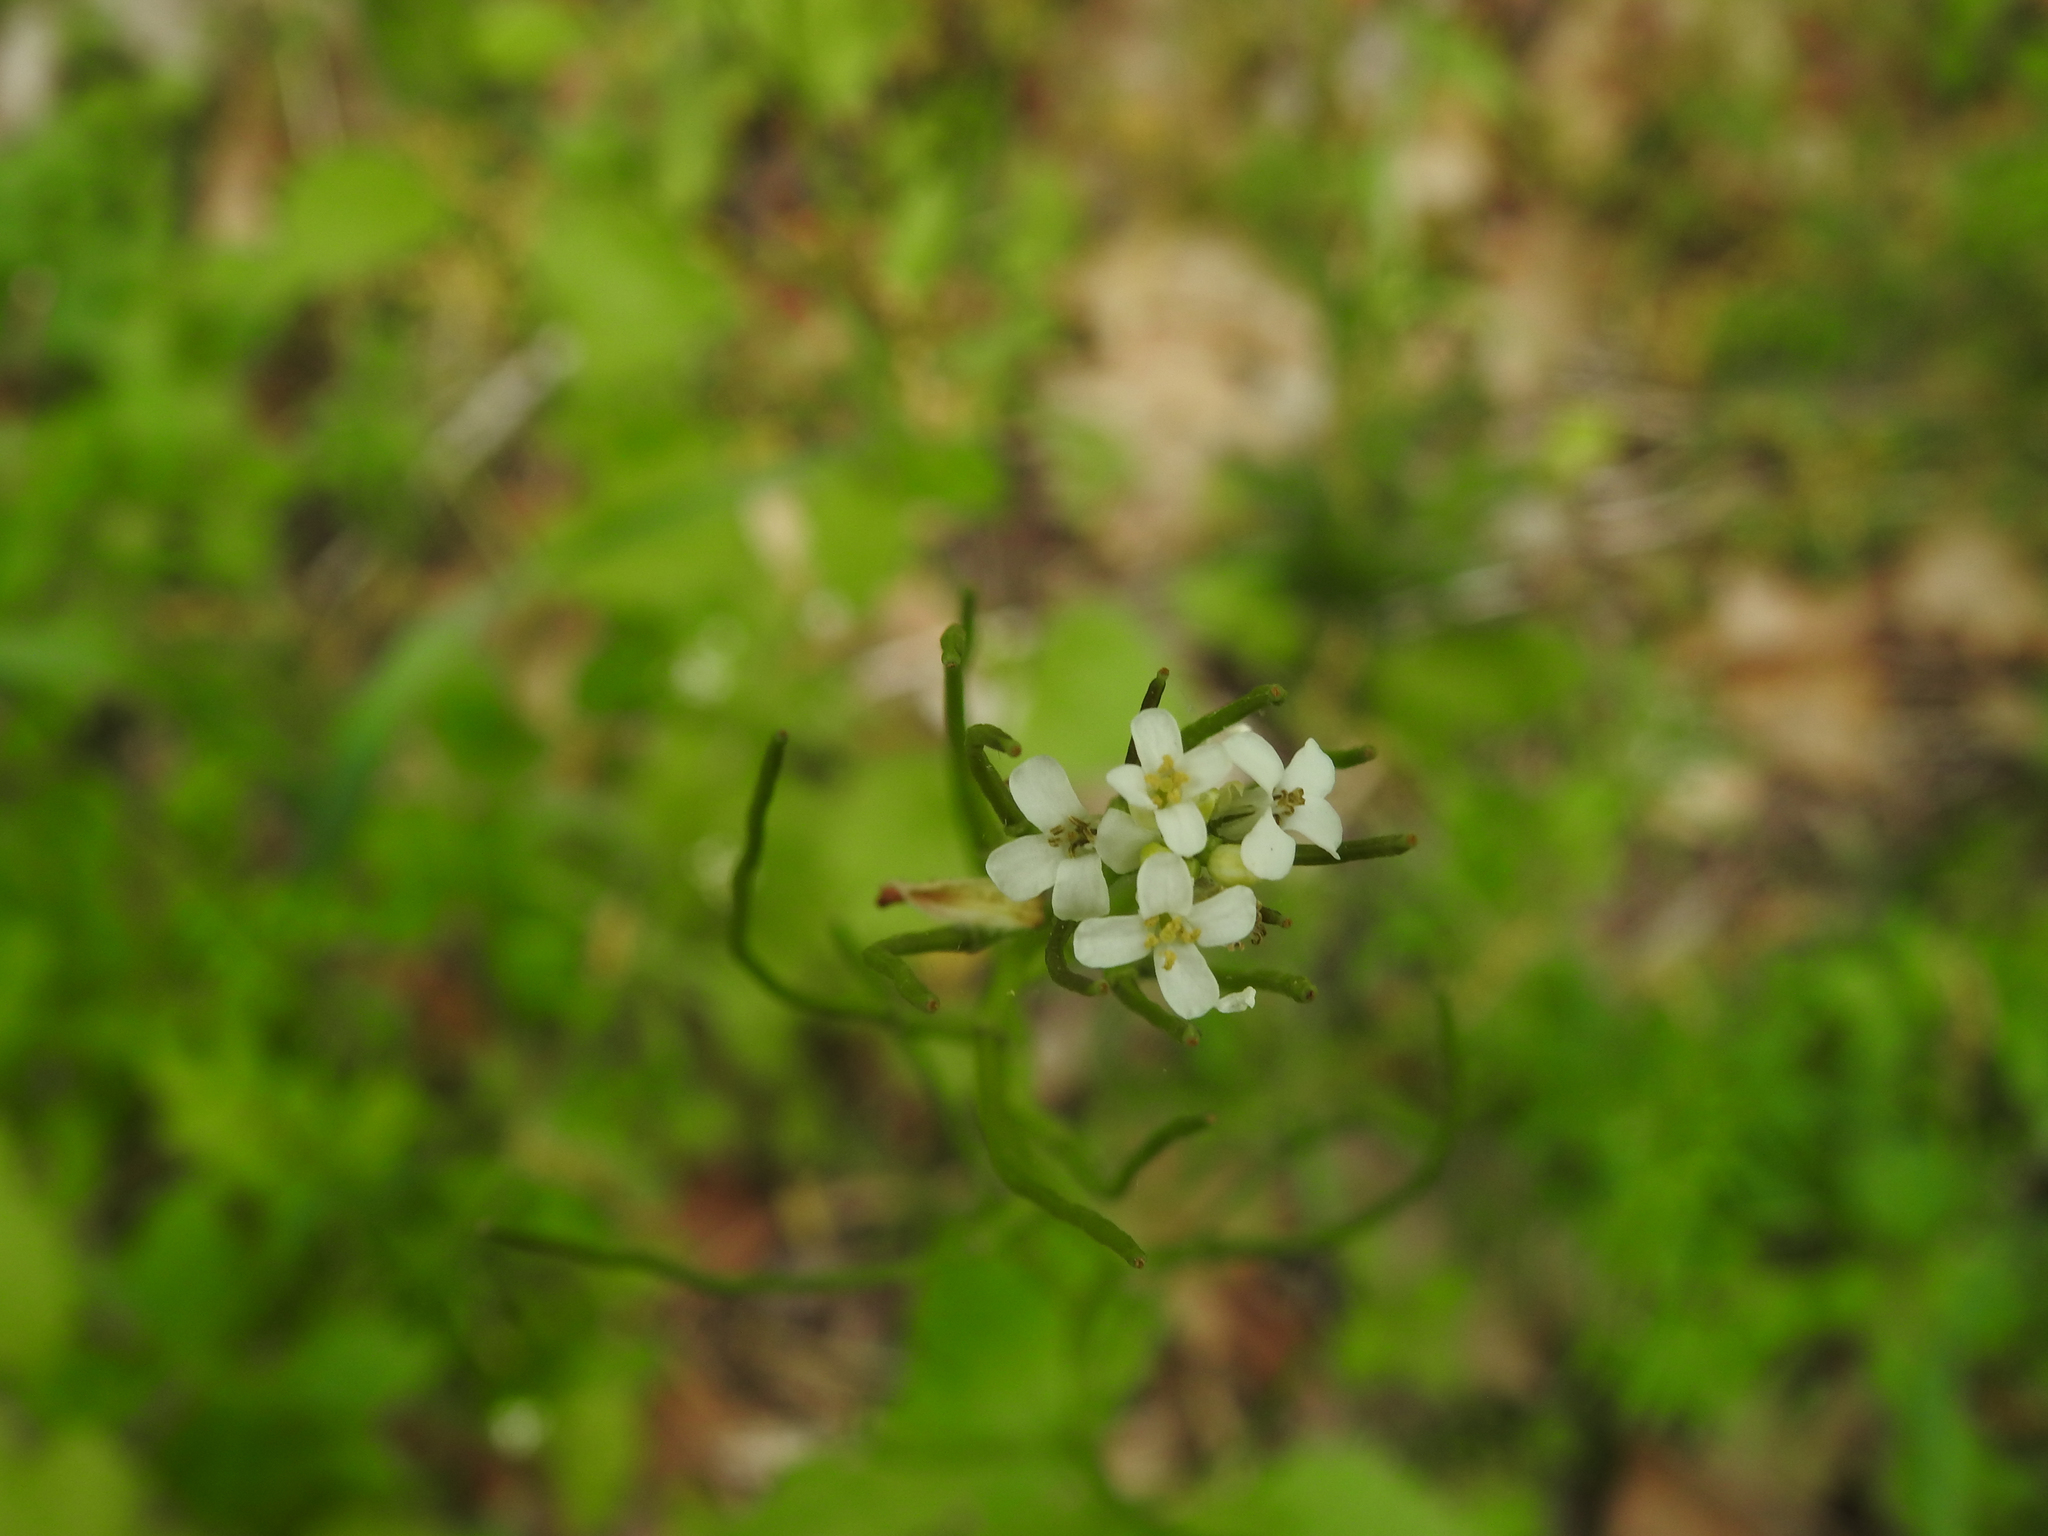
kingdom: Plantae
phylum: Tracheophyta
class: Magnoliopsida
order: Brassicales
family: Brassicaceae
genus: Alliaria
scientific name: Alliaria petiolata
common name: Garlic mustard
